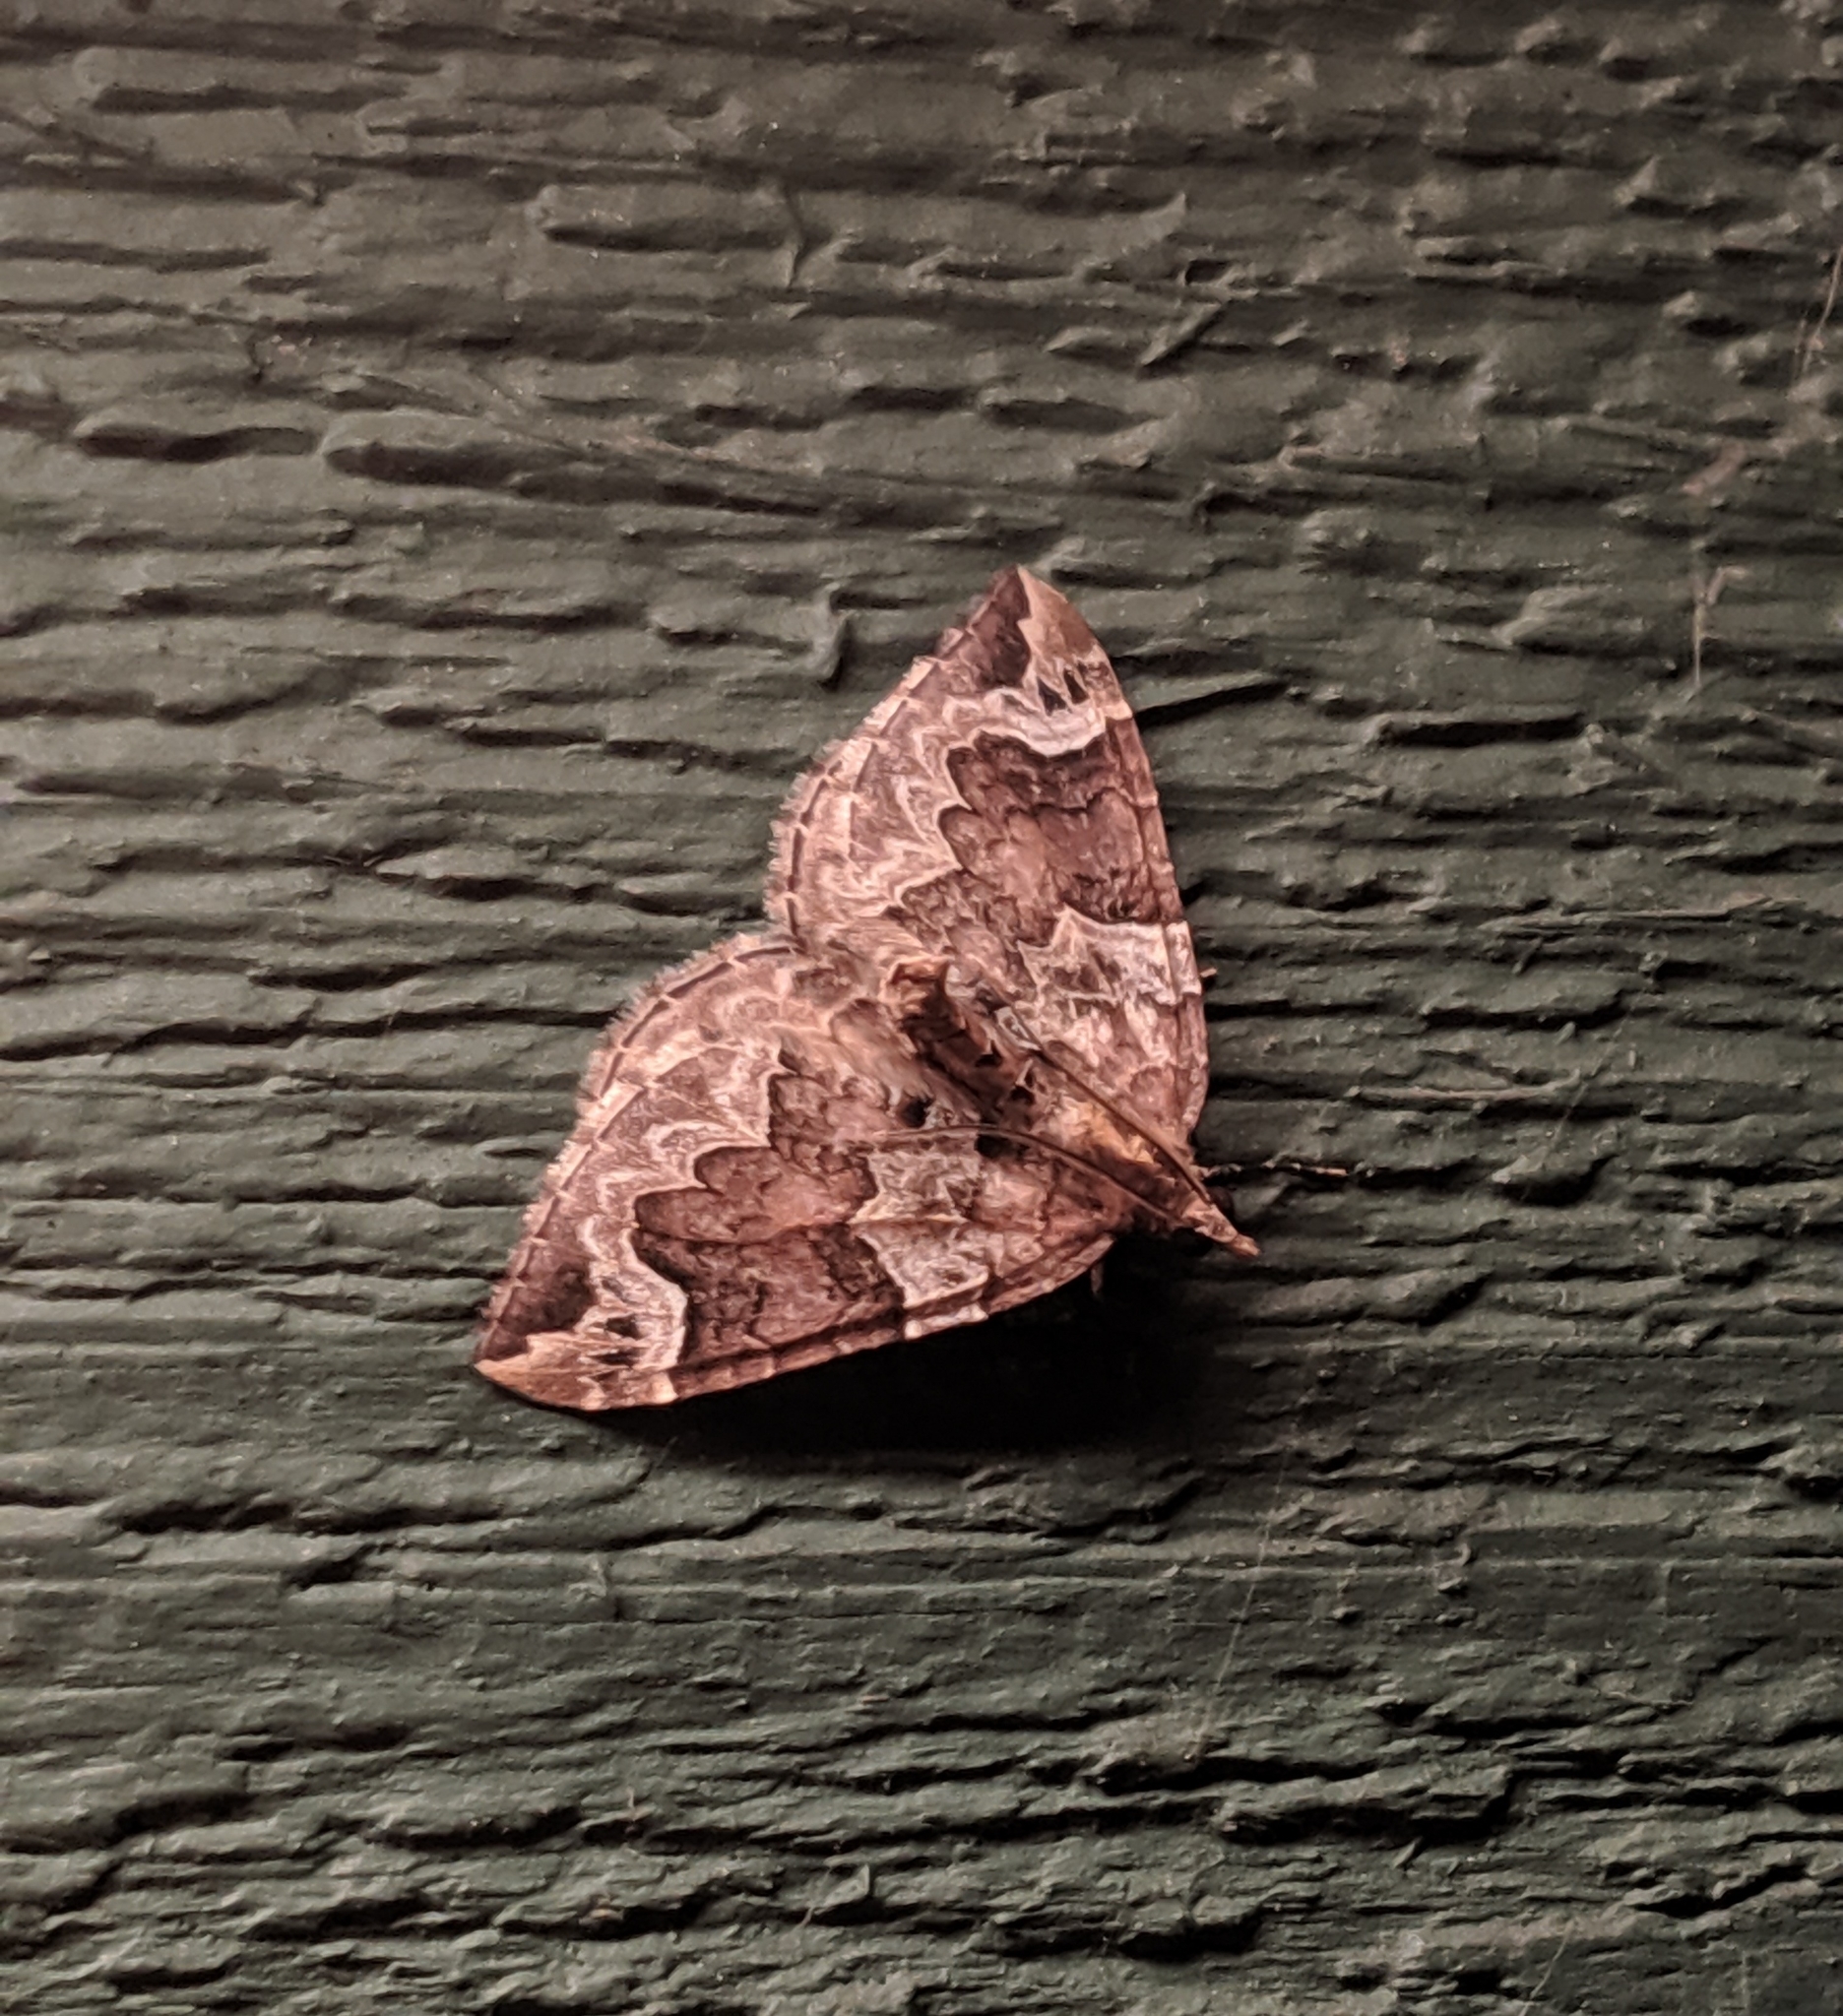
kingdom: Animalia
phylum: Arthropoda
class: Insecta
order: Lepidoptera
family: Geometridae
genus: Eulithis
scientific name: Eulithis xylina
